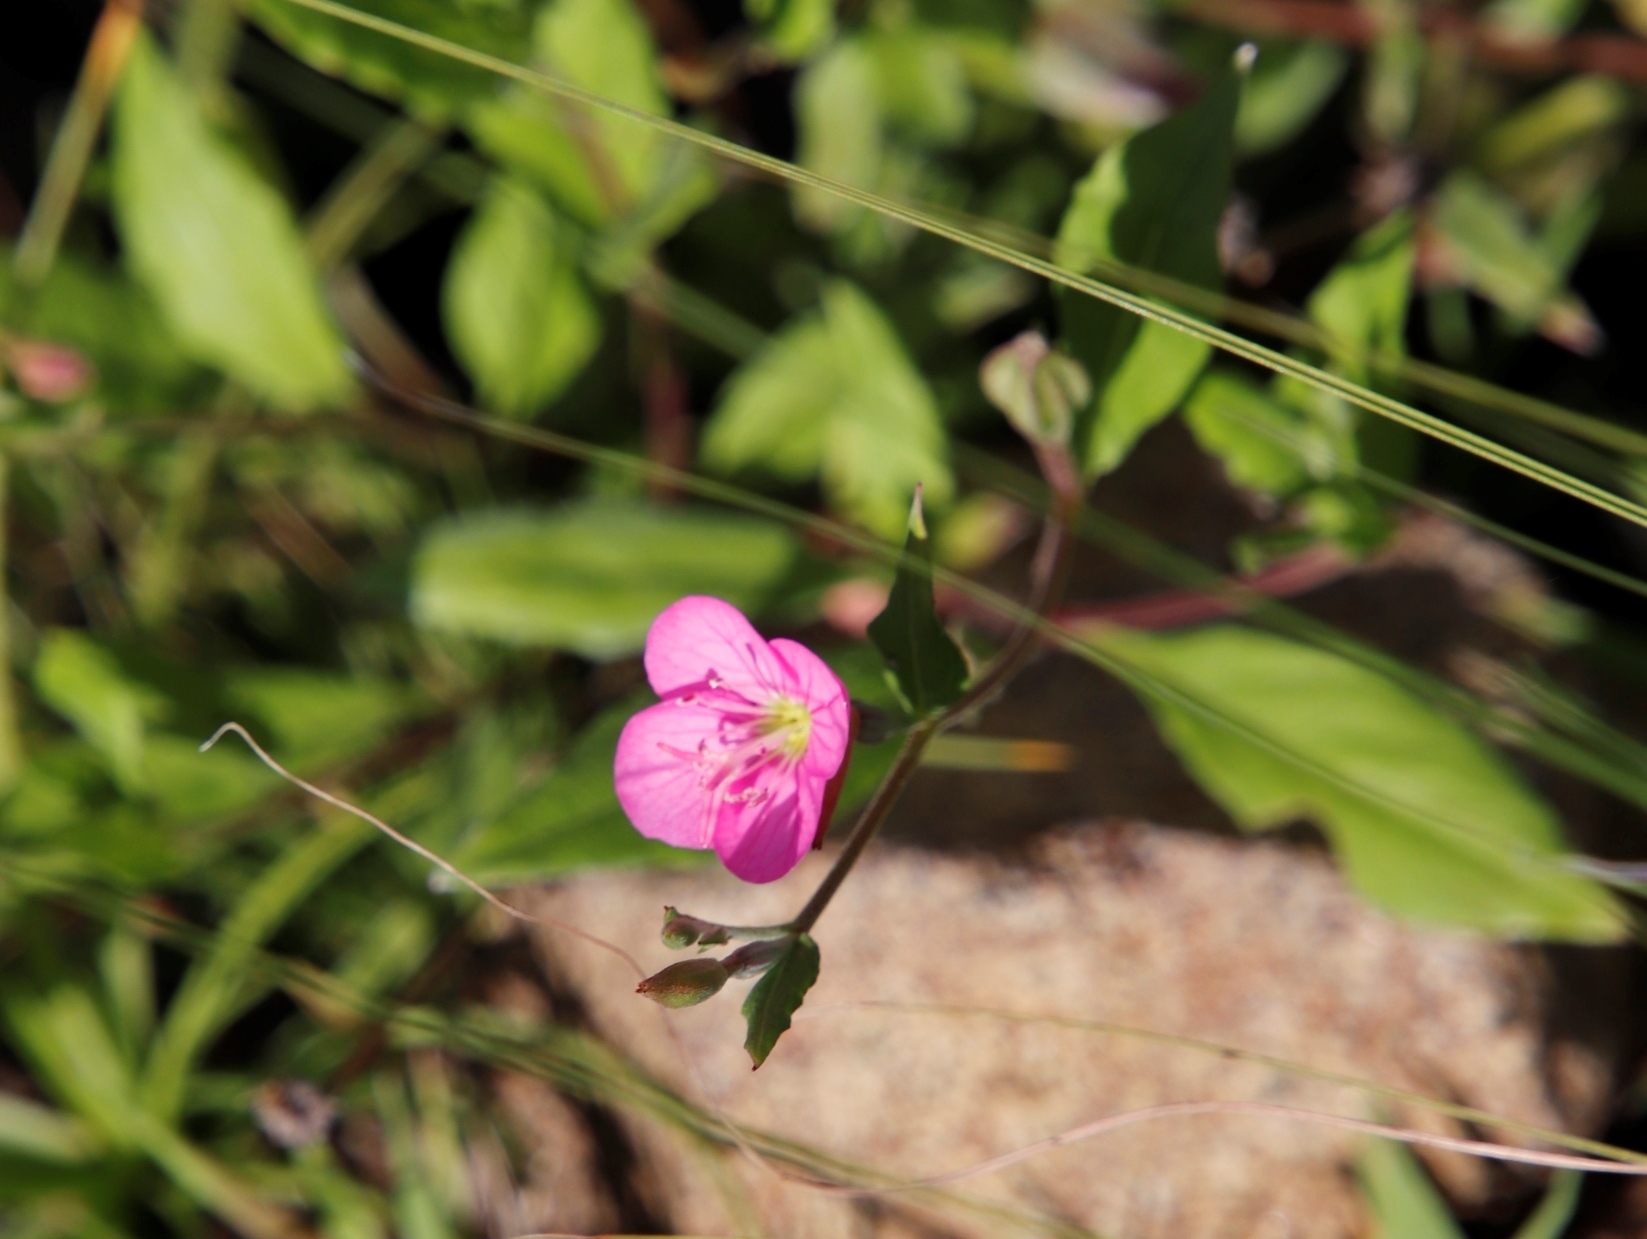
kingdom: Plantae
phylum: Tracheophyta
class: Magnoliopsida
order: Myrtales
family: Onagraceae
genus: Oenothera
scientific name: Oenothera rosea
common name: Rosy evening-primrose
